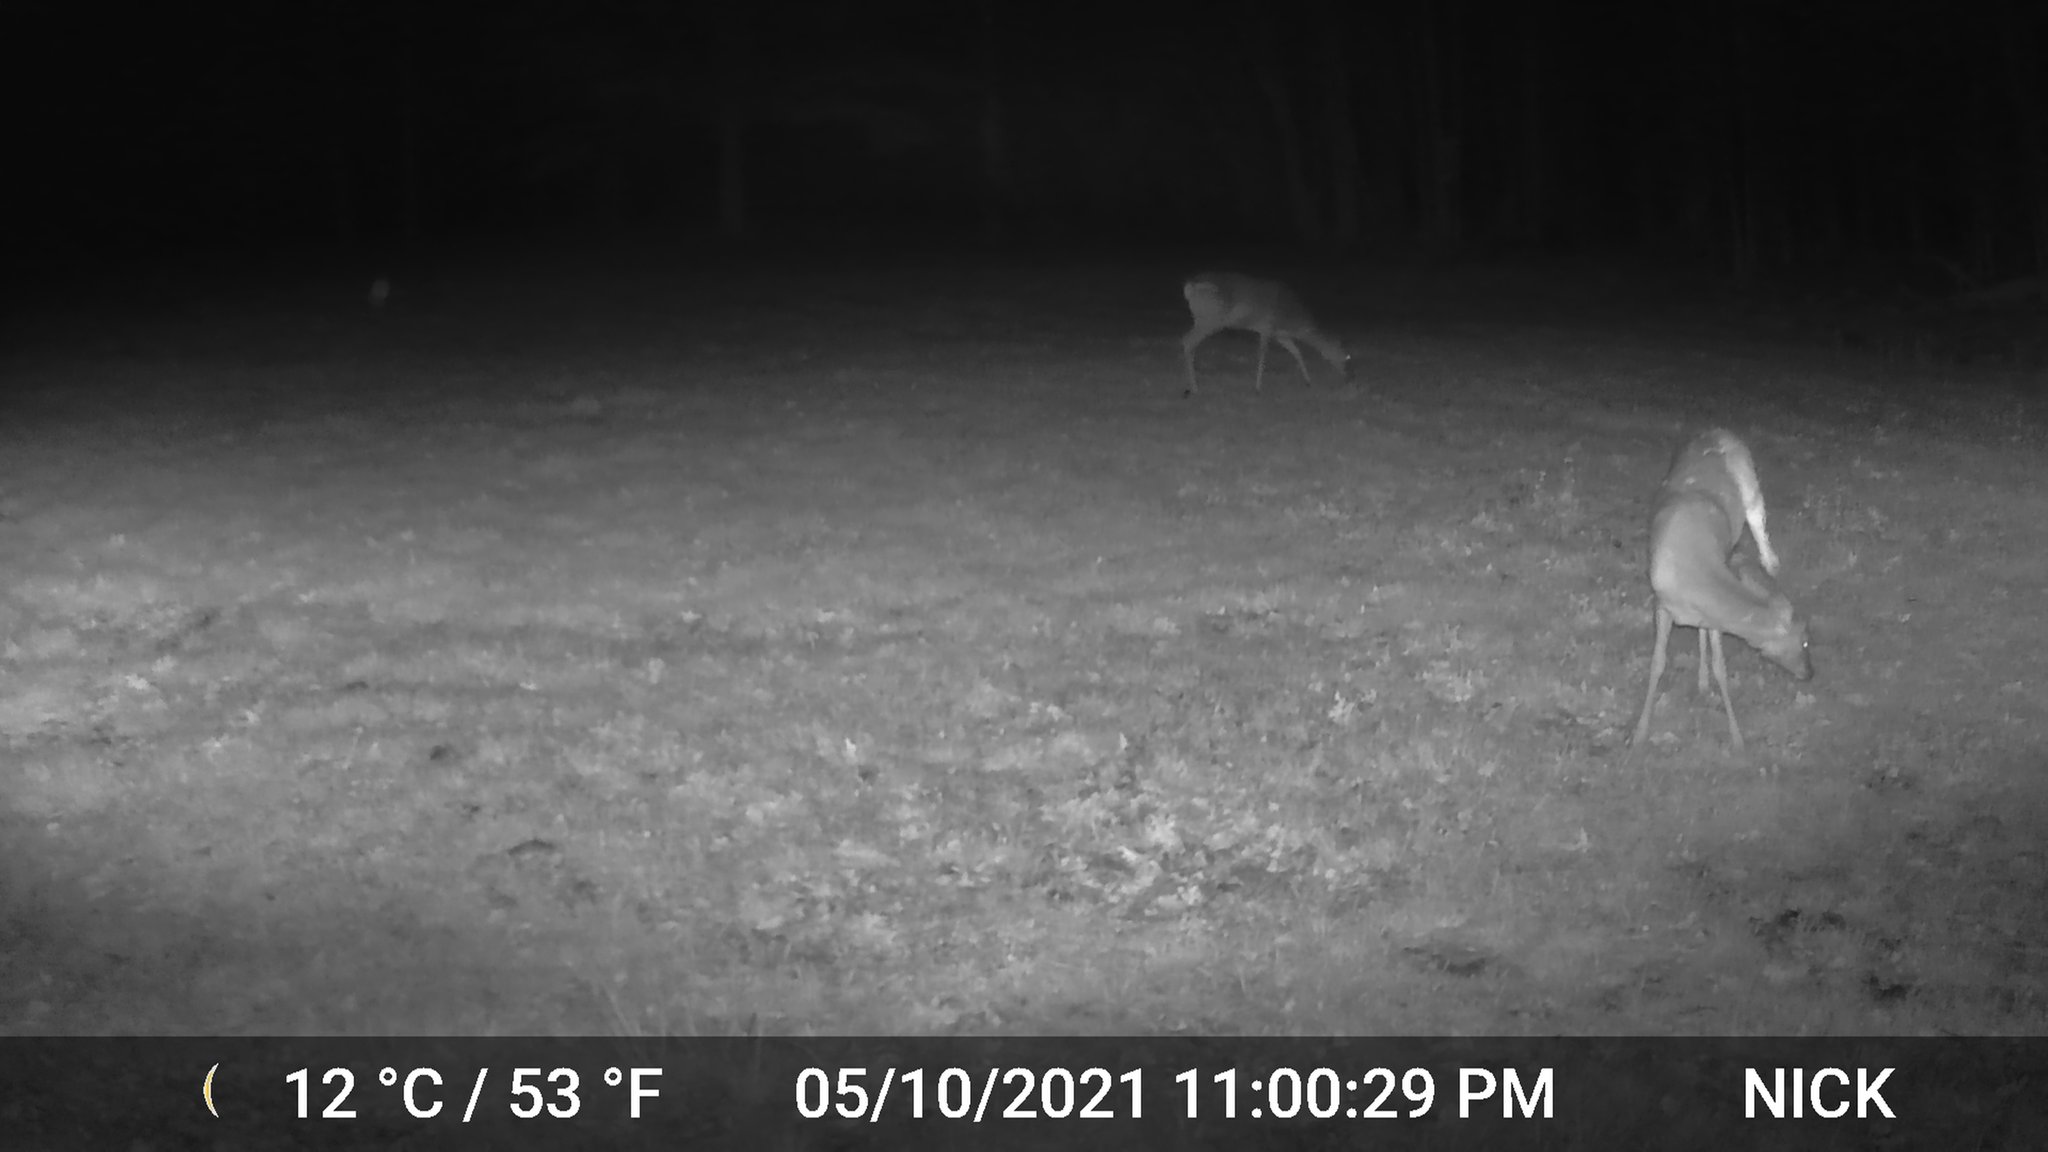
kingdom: Animalia
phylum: Chordata
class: Mammalia
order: Artiodactyla
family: Cervidae
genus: Odocoileus
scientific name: Odocoileus virginianus
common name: White-tailed deer
